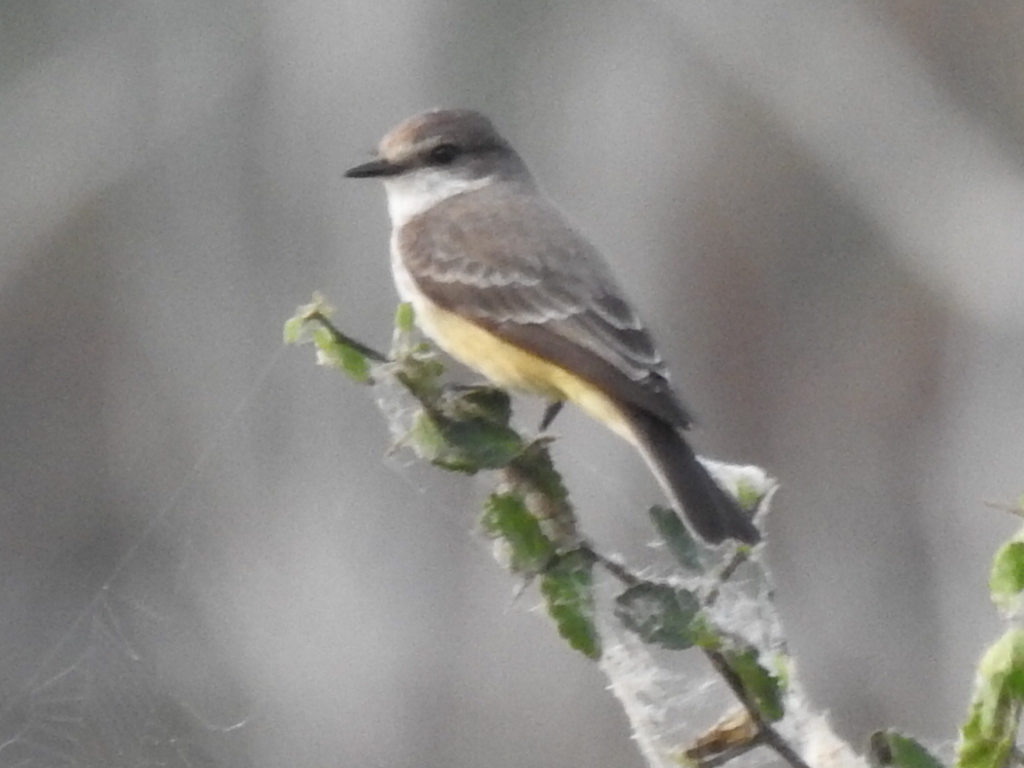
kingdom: Animalia
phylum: Chordata
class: Aves
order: Passeriformes
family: Tyrannidae
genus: Pyrocephalus
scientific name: Pyrocephalus rubinus
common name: Vermilion flycatcher
